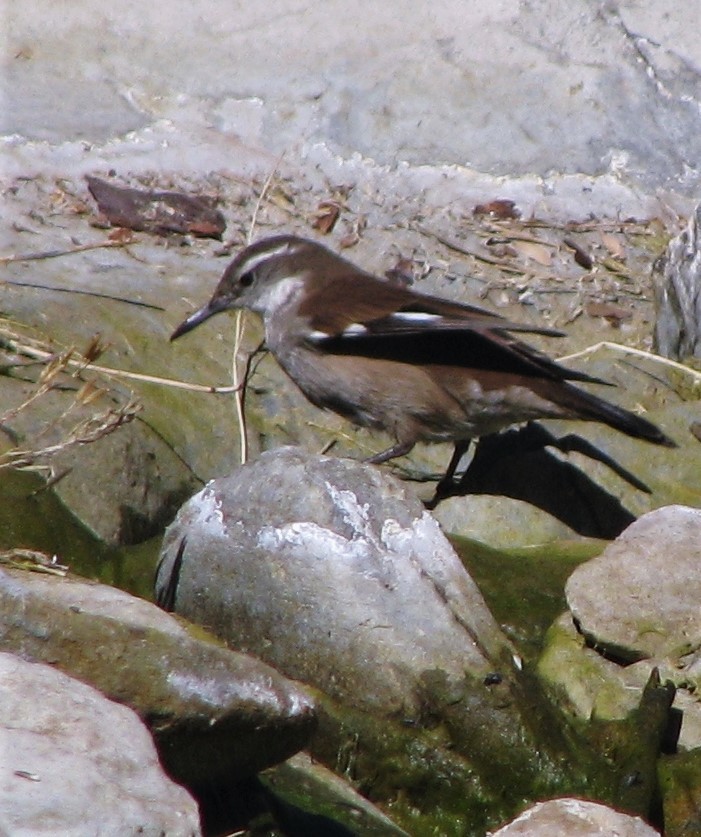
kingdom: Animalia
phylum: Chordata
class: Aves
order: Passeriformes
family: Furnariidae
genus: Cinclodes
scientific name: Cinclodes atacamensis
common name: White-winged cinclodes
